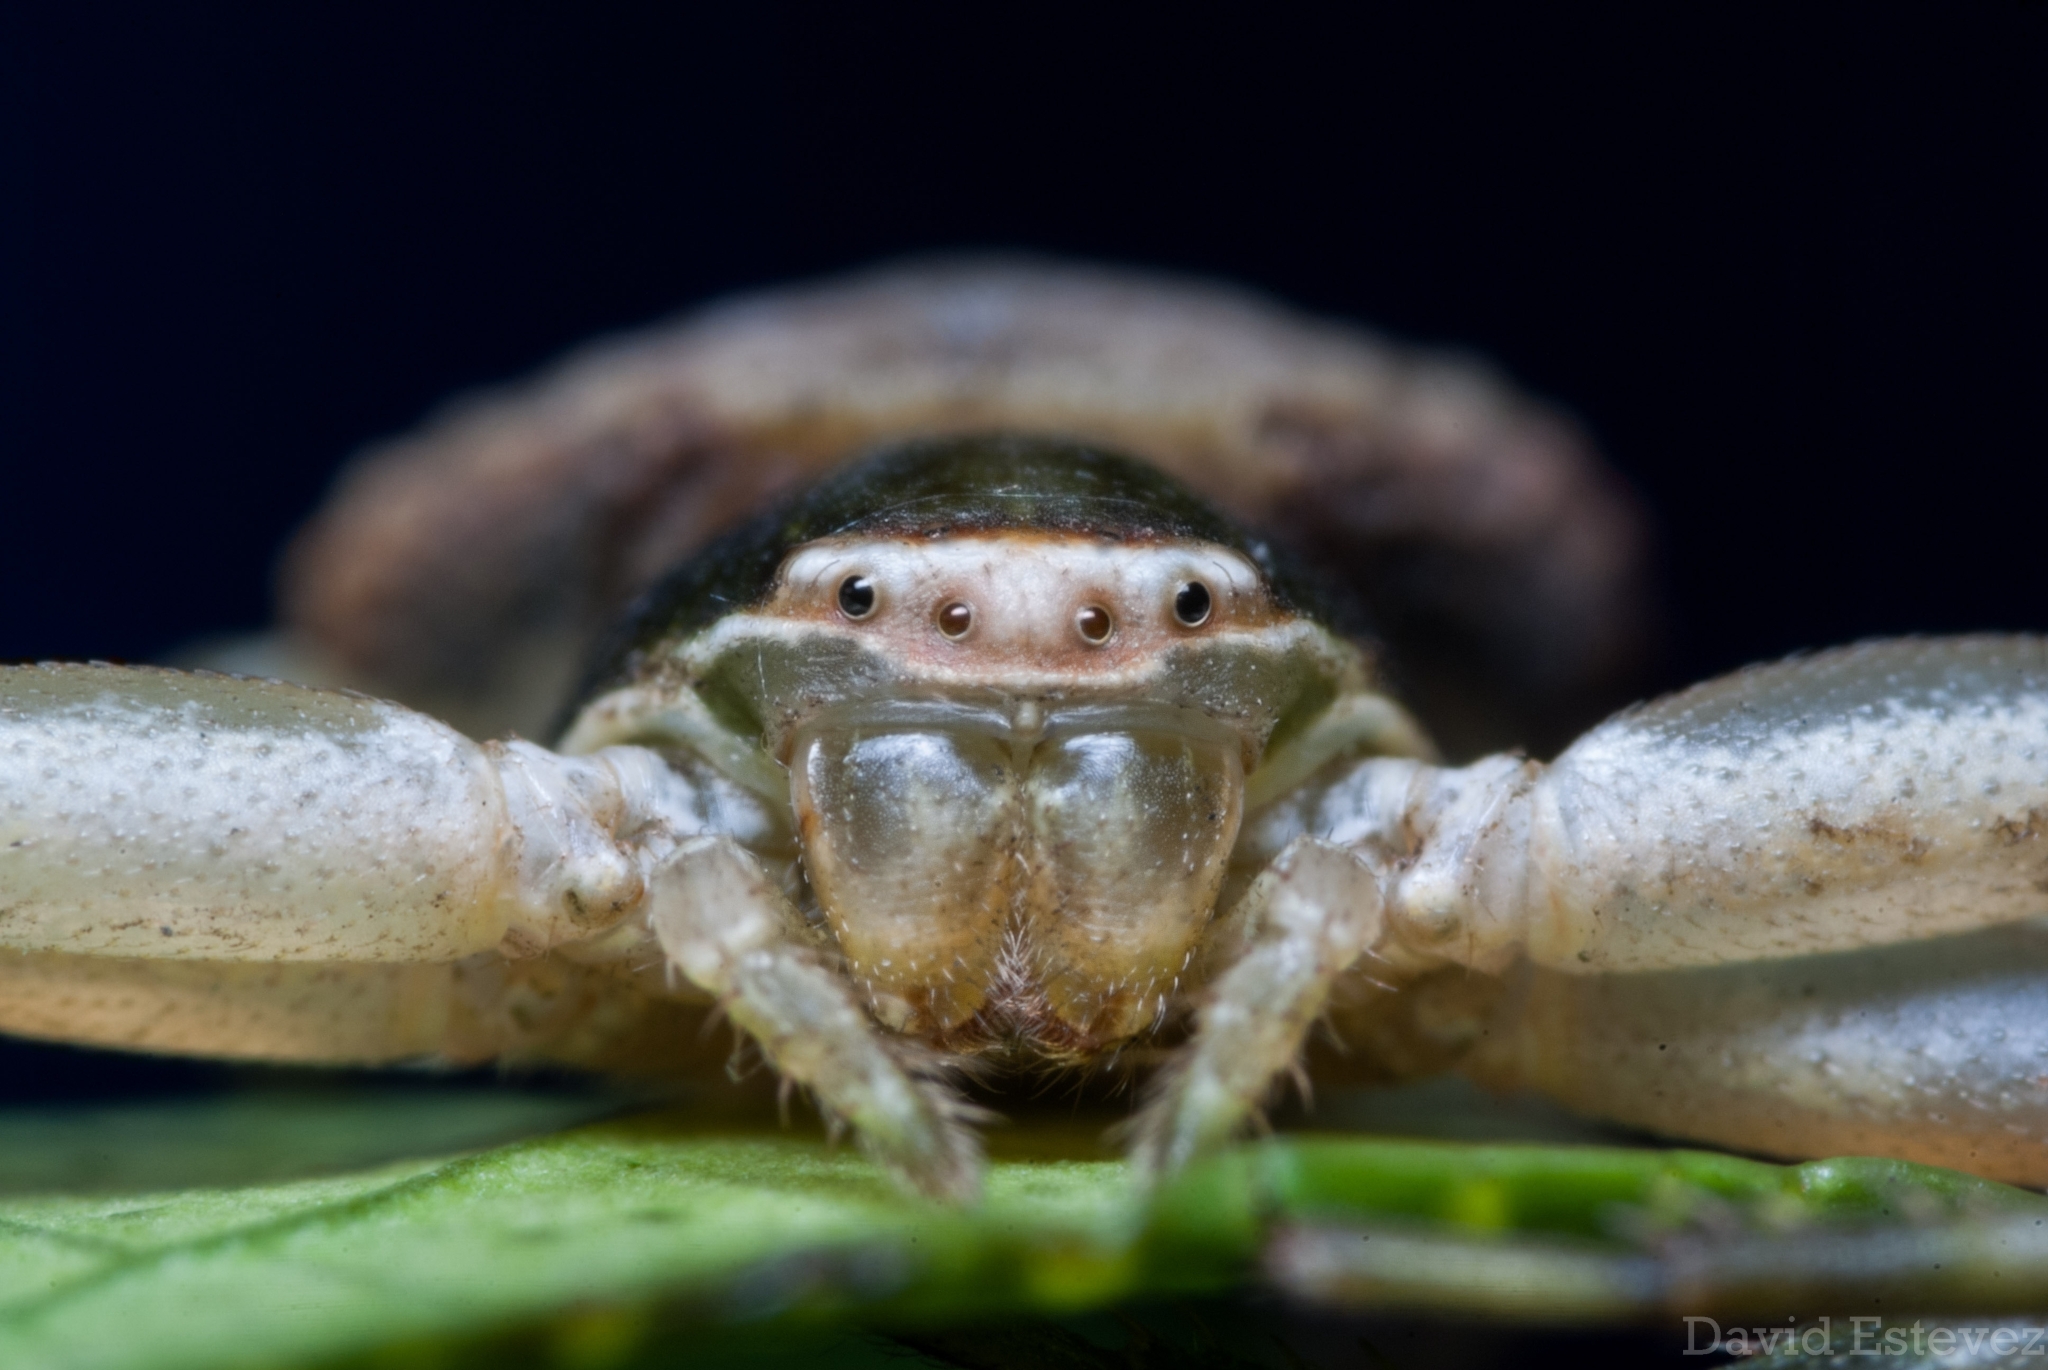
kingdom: Animalia
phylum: Arthropoda
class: Arachnida
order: Araneae
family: Thomisidae
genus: Misumenoides
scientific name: Misumenoides
